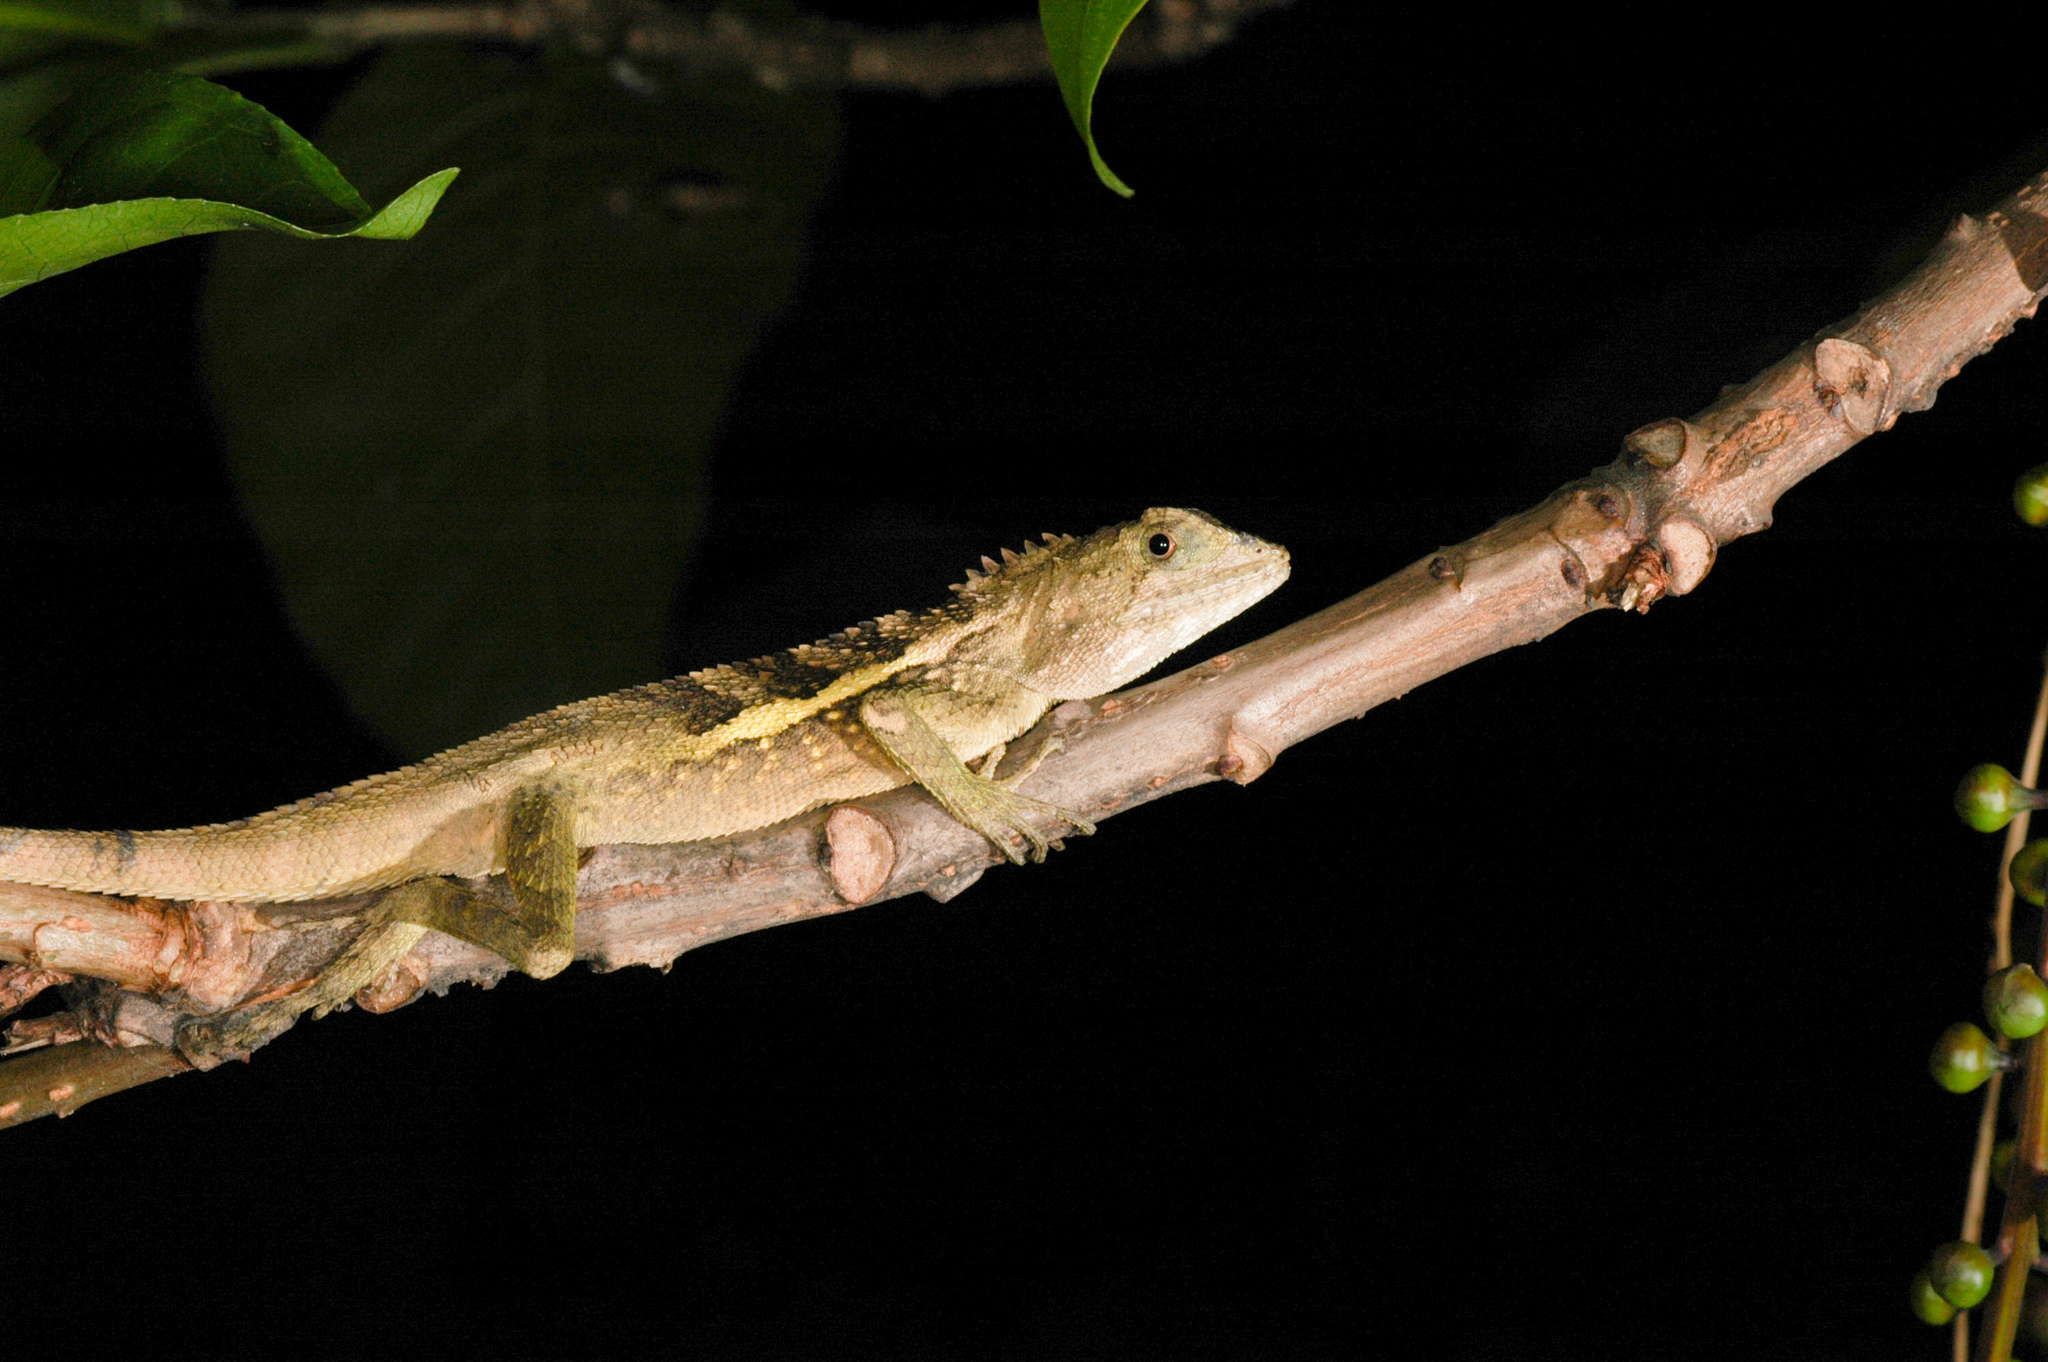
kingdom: Animalia
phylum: Chordata
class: Squamata
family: Agamidae
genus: Diploderma
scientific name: Diploderma swinhonis
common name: Taiwan japalure
